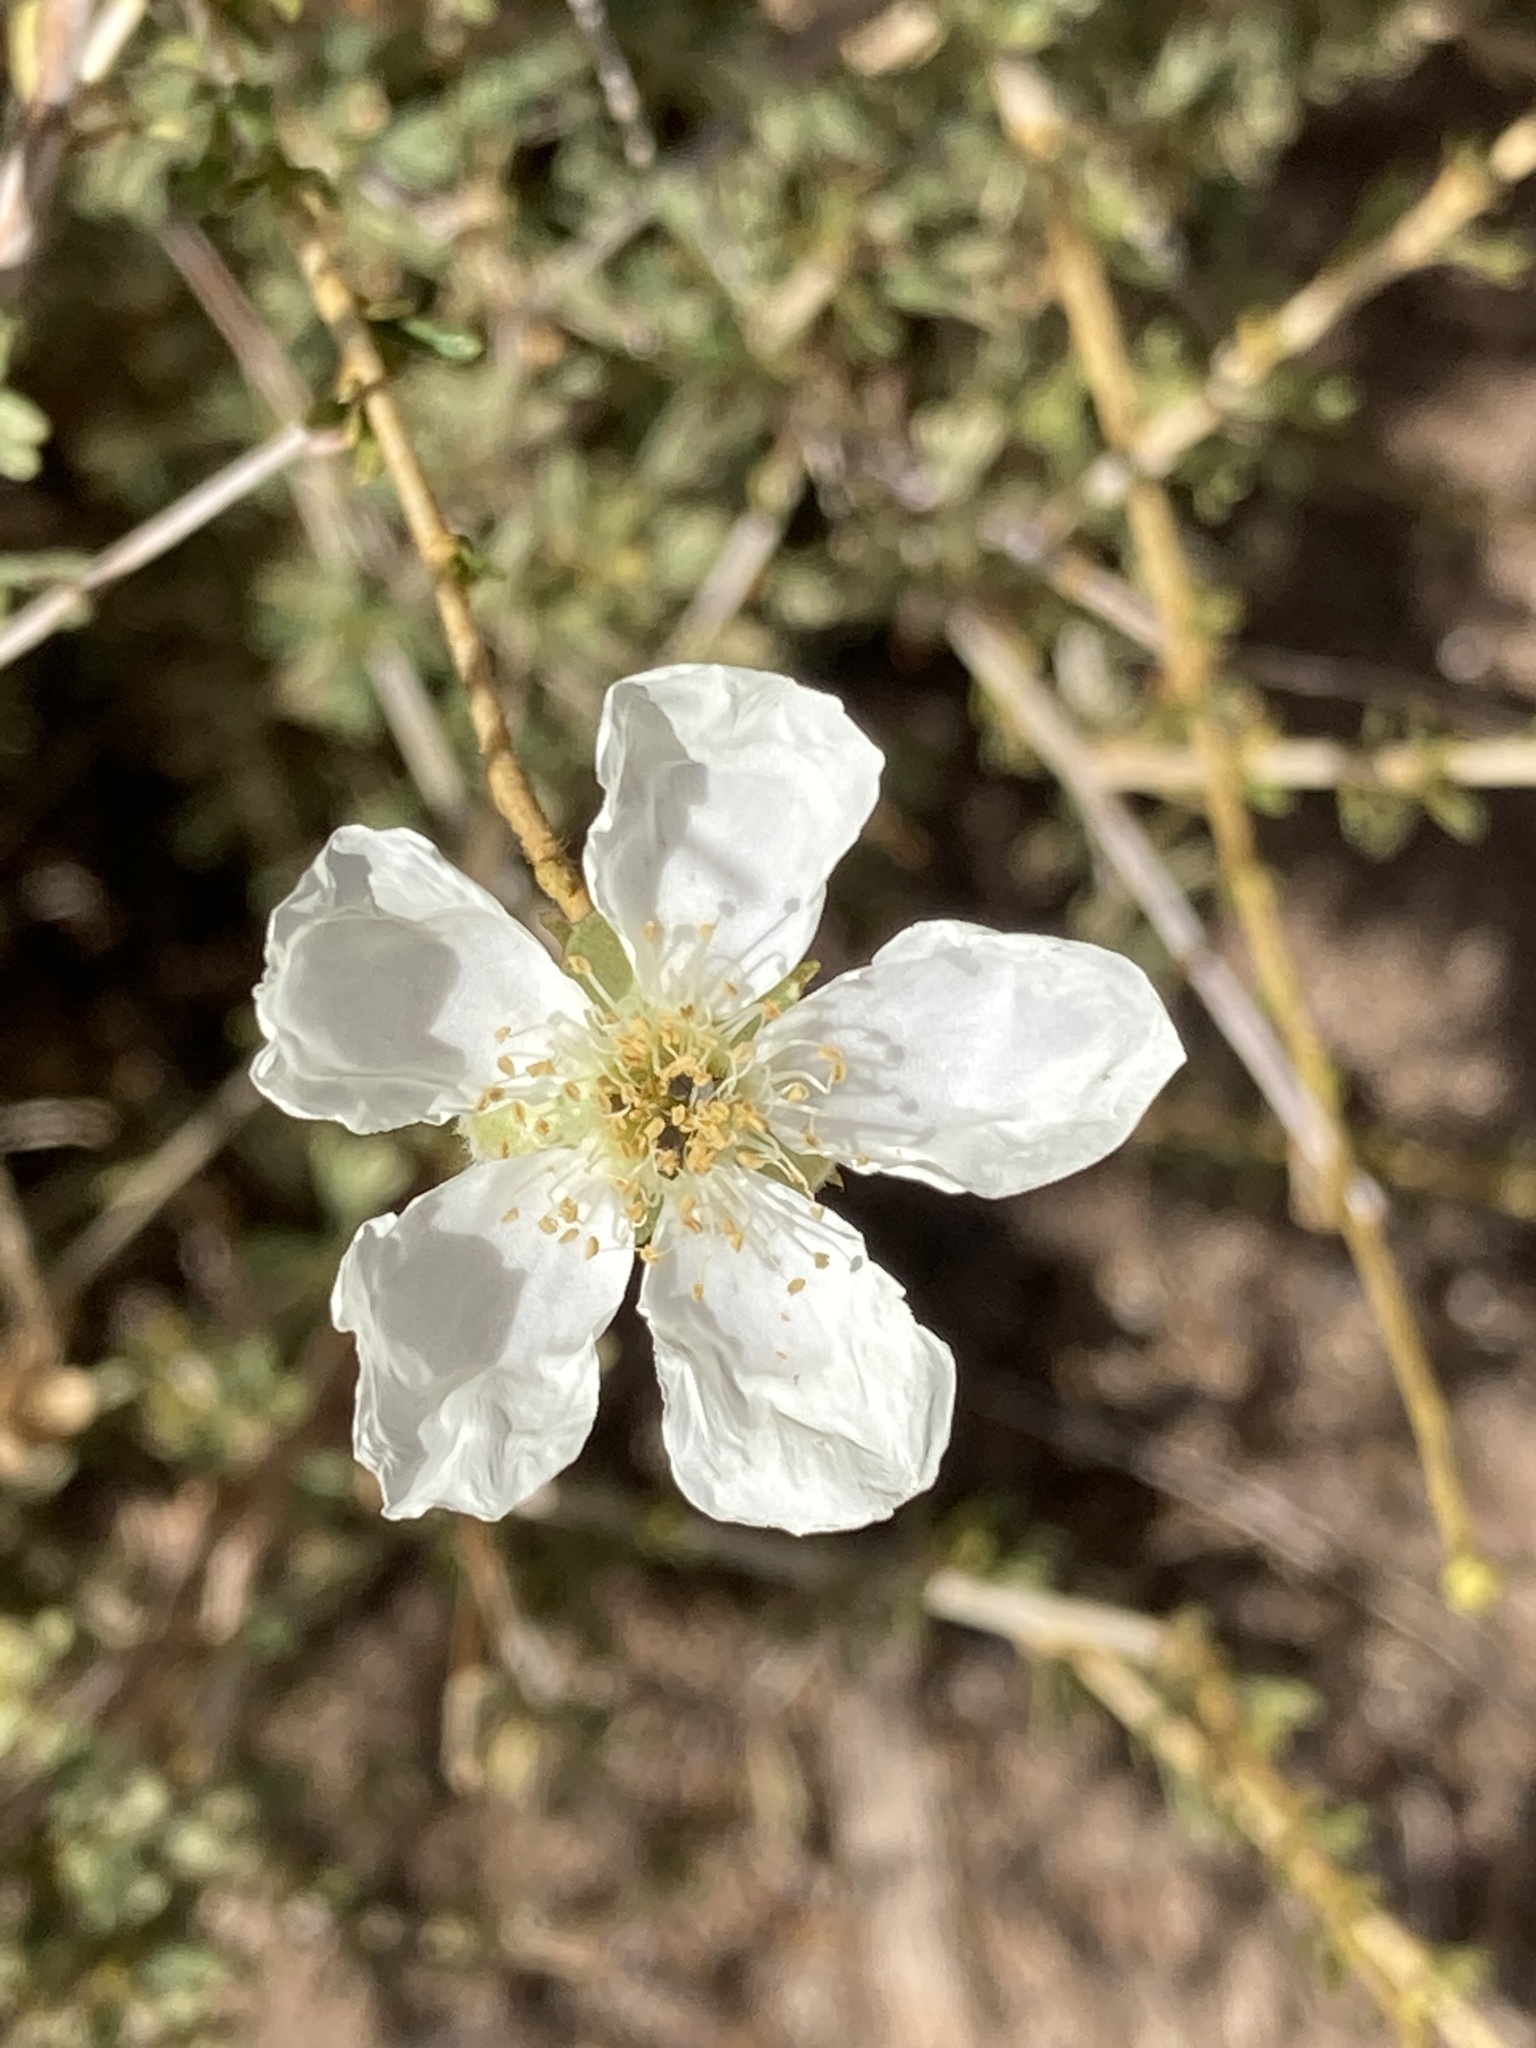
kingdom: Plantae
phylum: Tracheophyta
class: Magnoliopsida
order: Rosales
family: Rosaceae
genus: Fallugia
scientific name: Fallugia paradoxa
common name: Apache-plume
